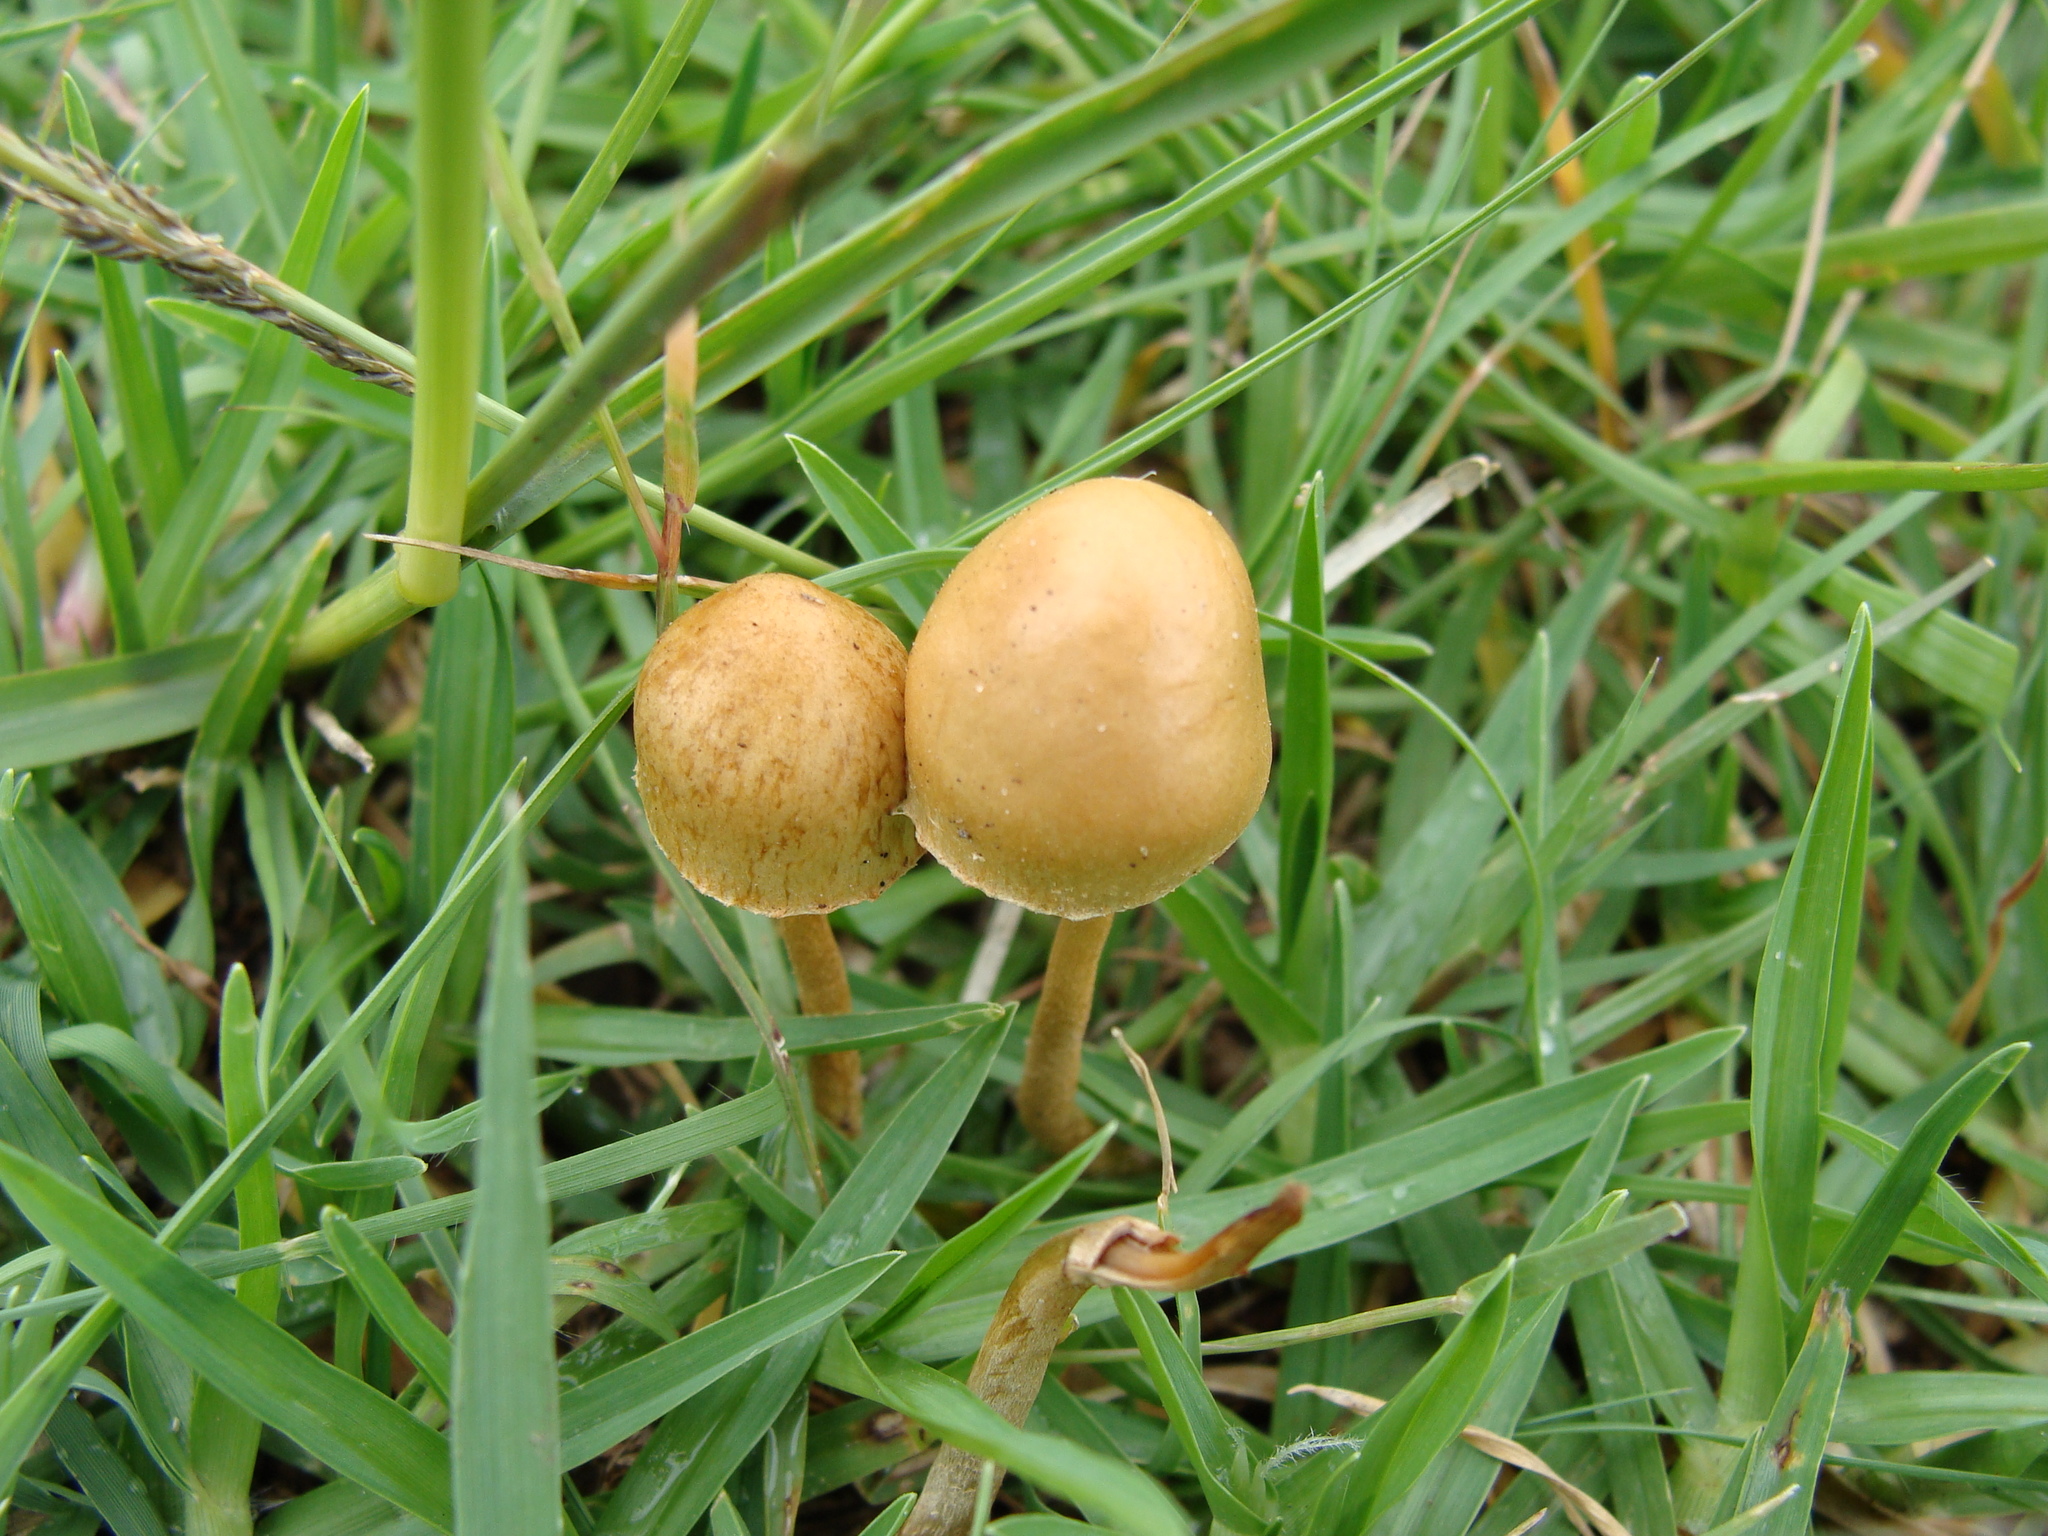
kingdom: Fungi
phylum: Basidiomycota
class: Agaricomycetes
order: Agaricales
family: Strophariaceae
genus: Agrocybe
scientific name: Agrocybe pediades
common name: Common fieldcap
